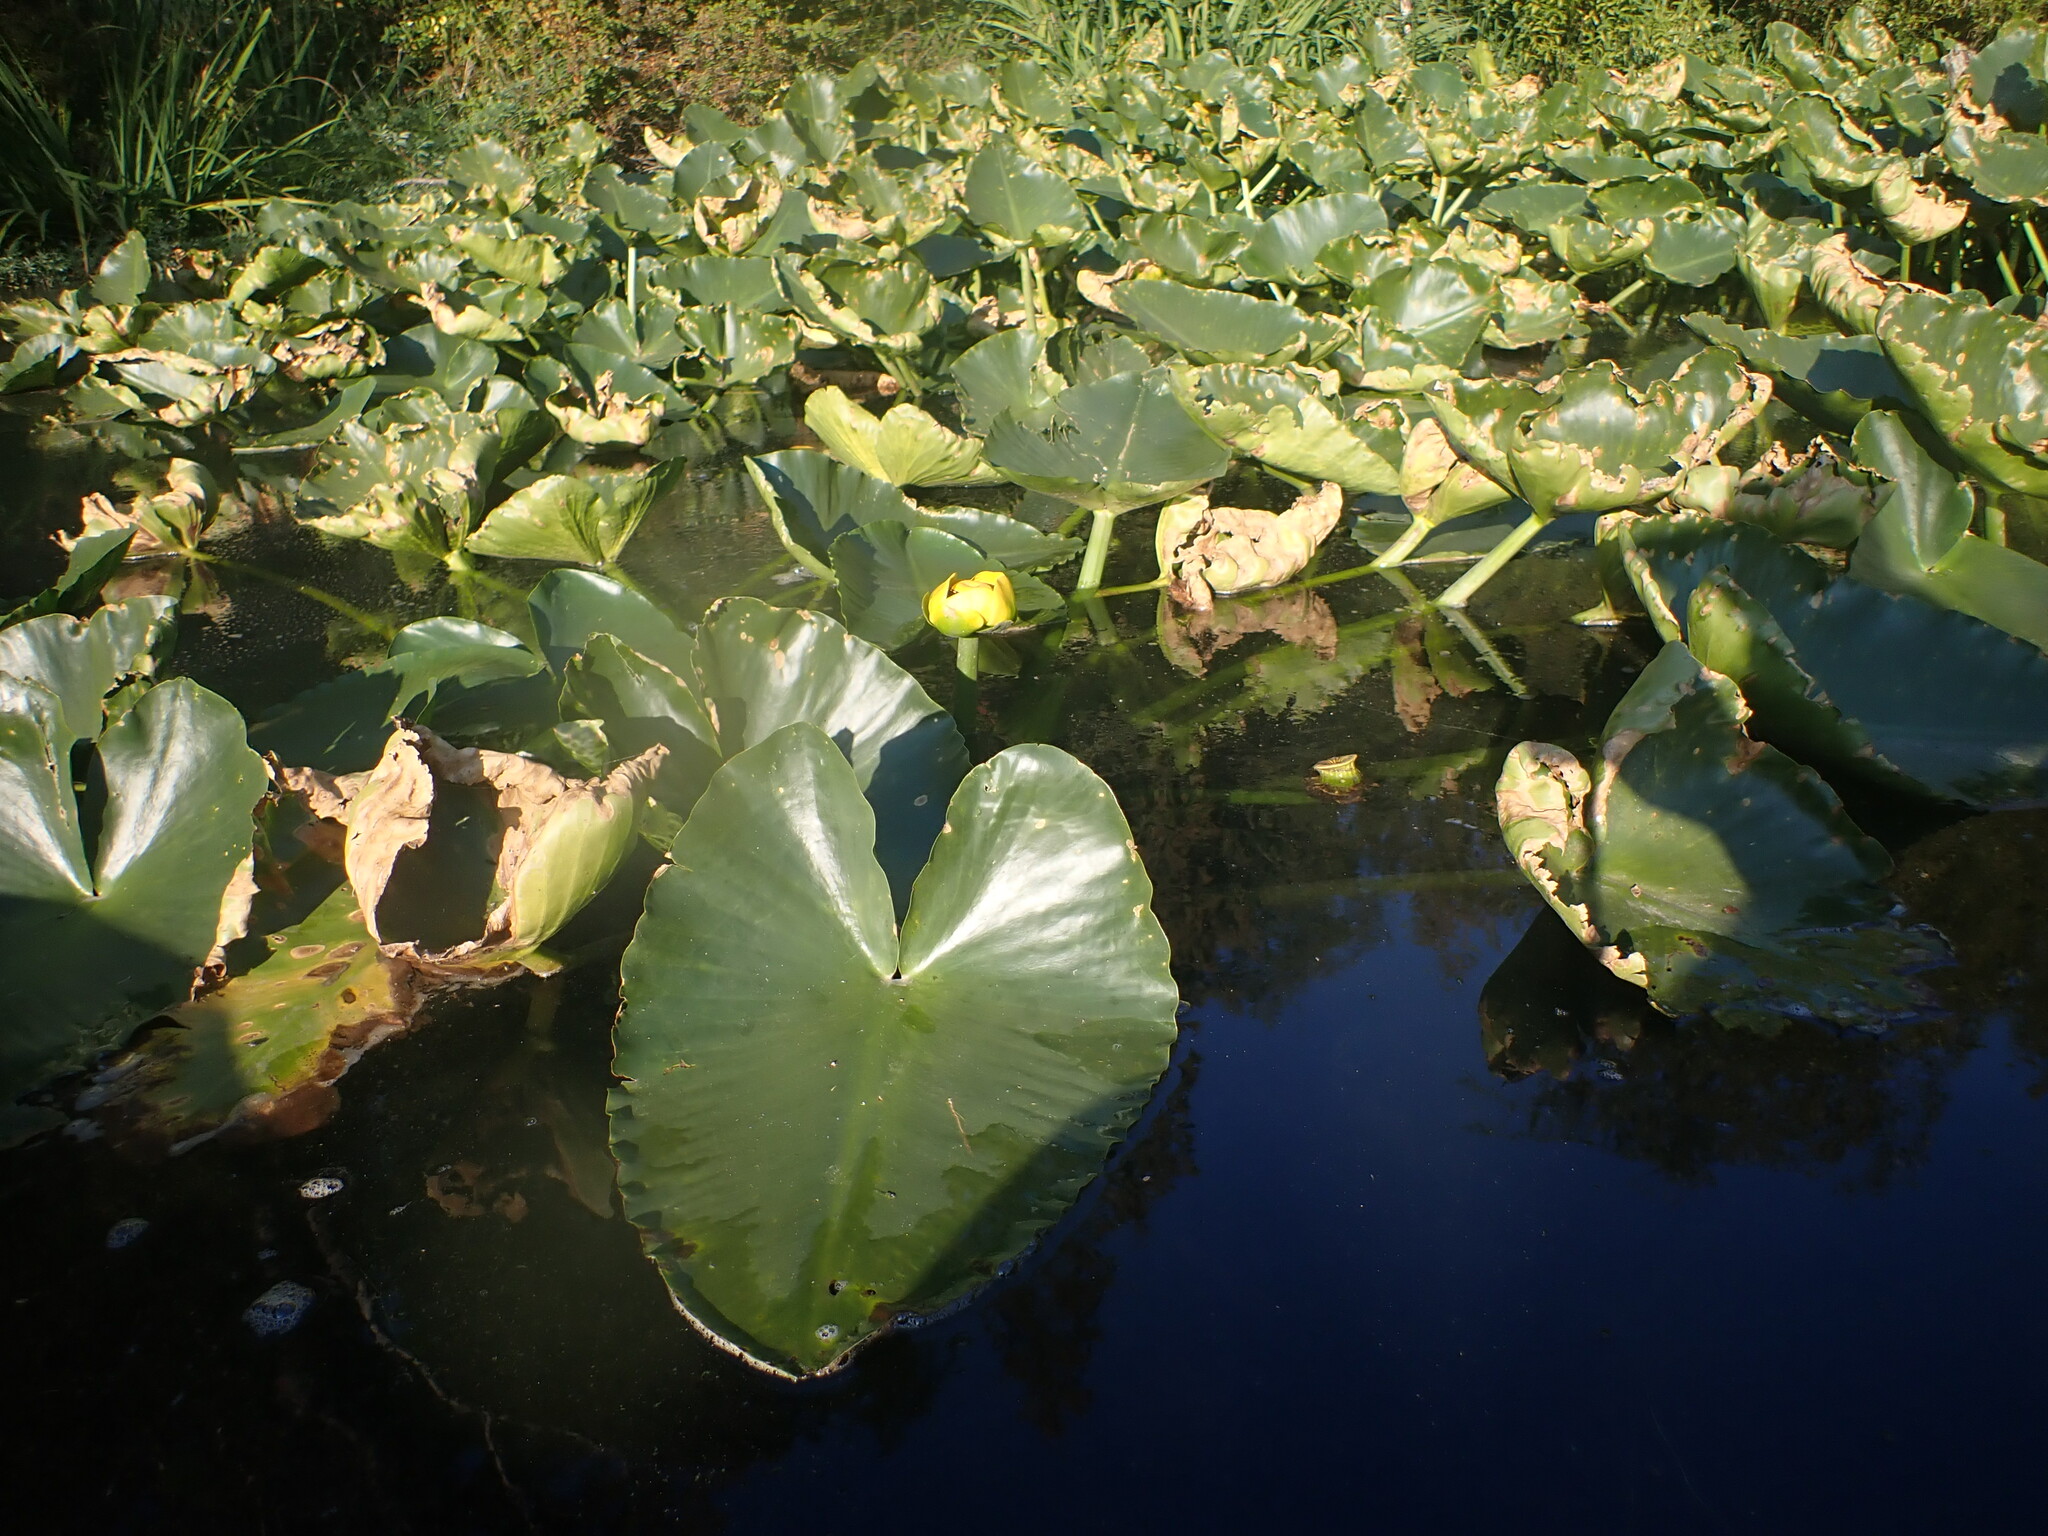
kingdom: Plantae
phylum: Tracheophyta
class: Magnoliopsida
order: Nymphaeales
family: Nymphaeaceae
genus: Nuphar
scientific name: Nuphar polysepala
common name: Rocky mountain cow-lily
